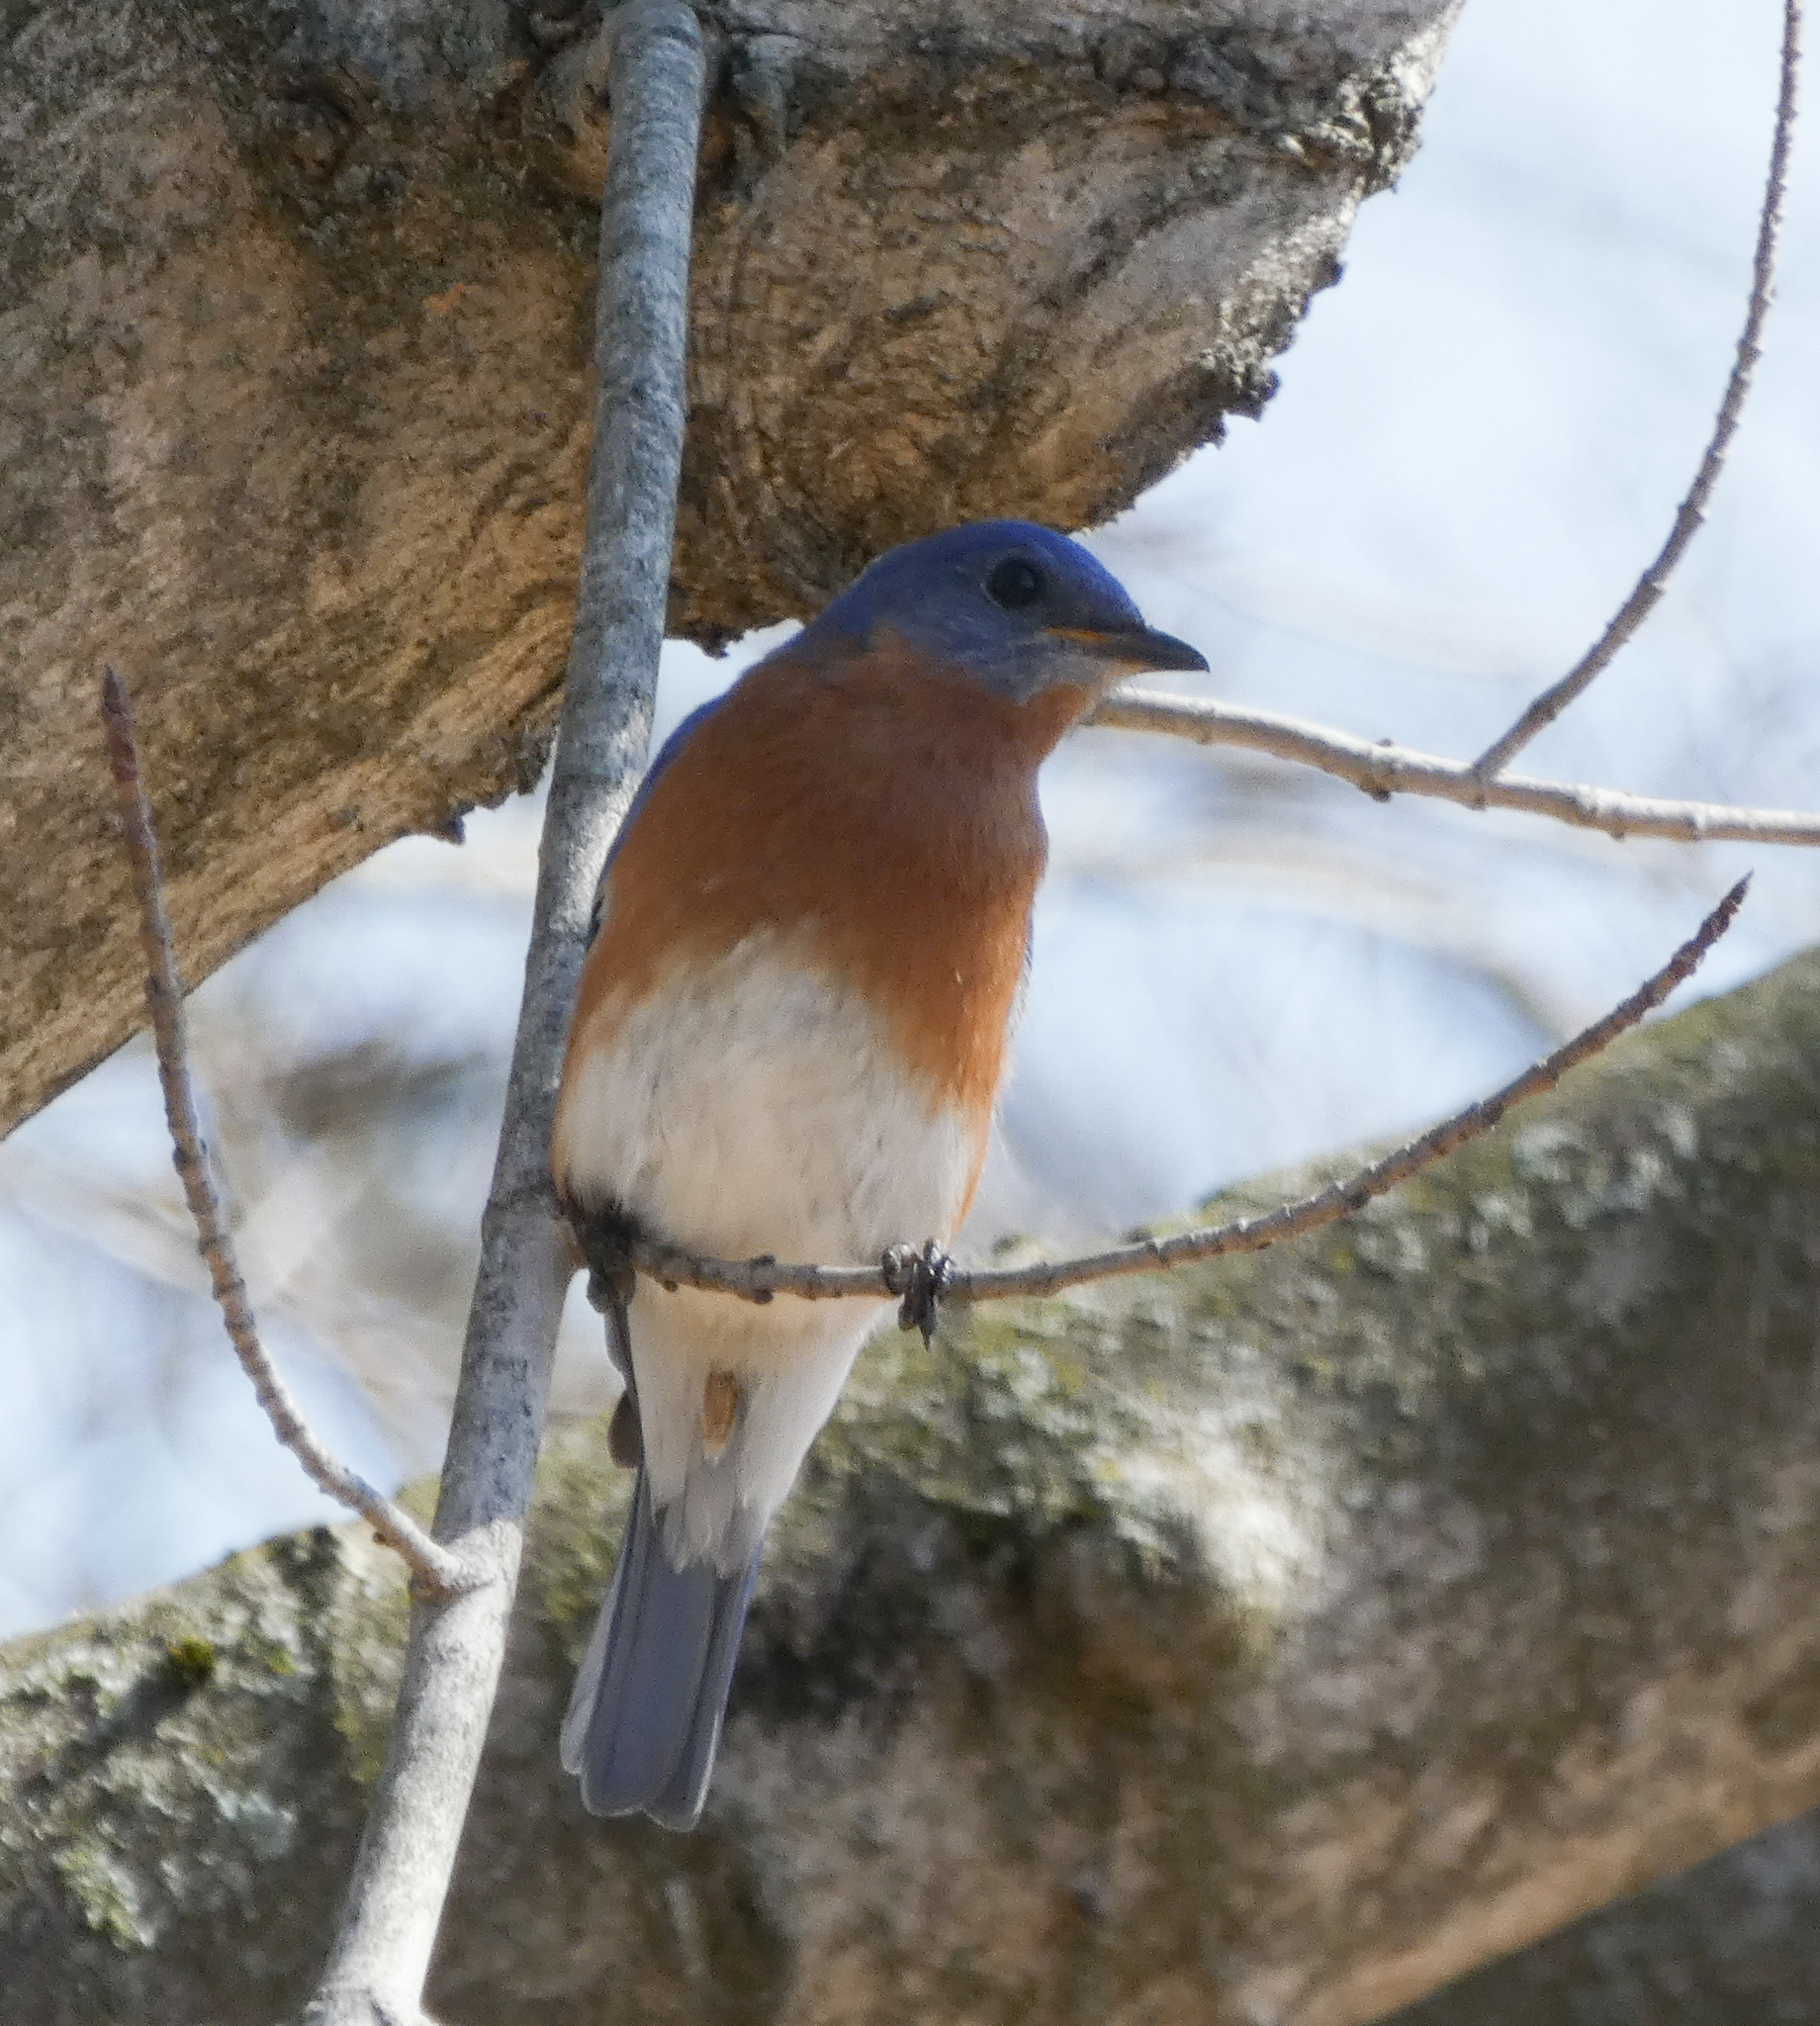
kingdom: Animalia
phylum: Chordata
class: Aves
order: Passeriformes
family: Turdidae
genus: Sialia
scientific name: Sialia sialis
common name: Eastern bluebird
